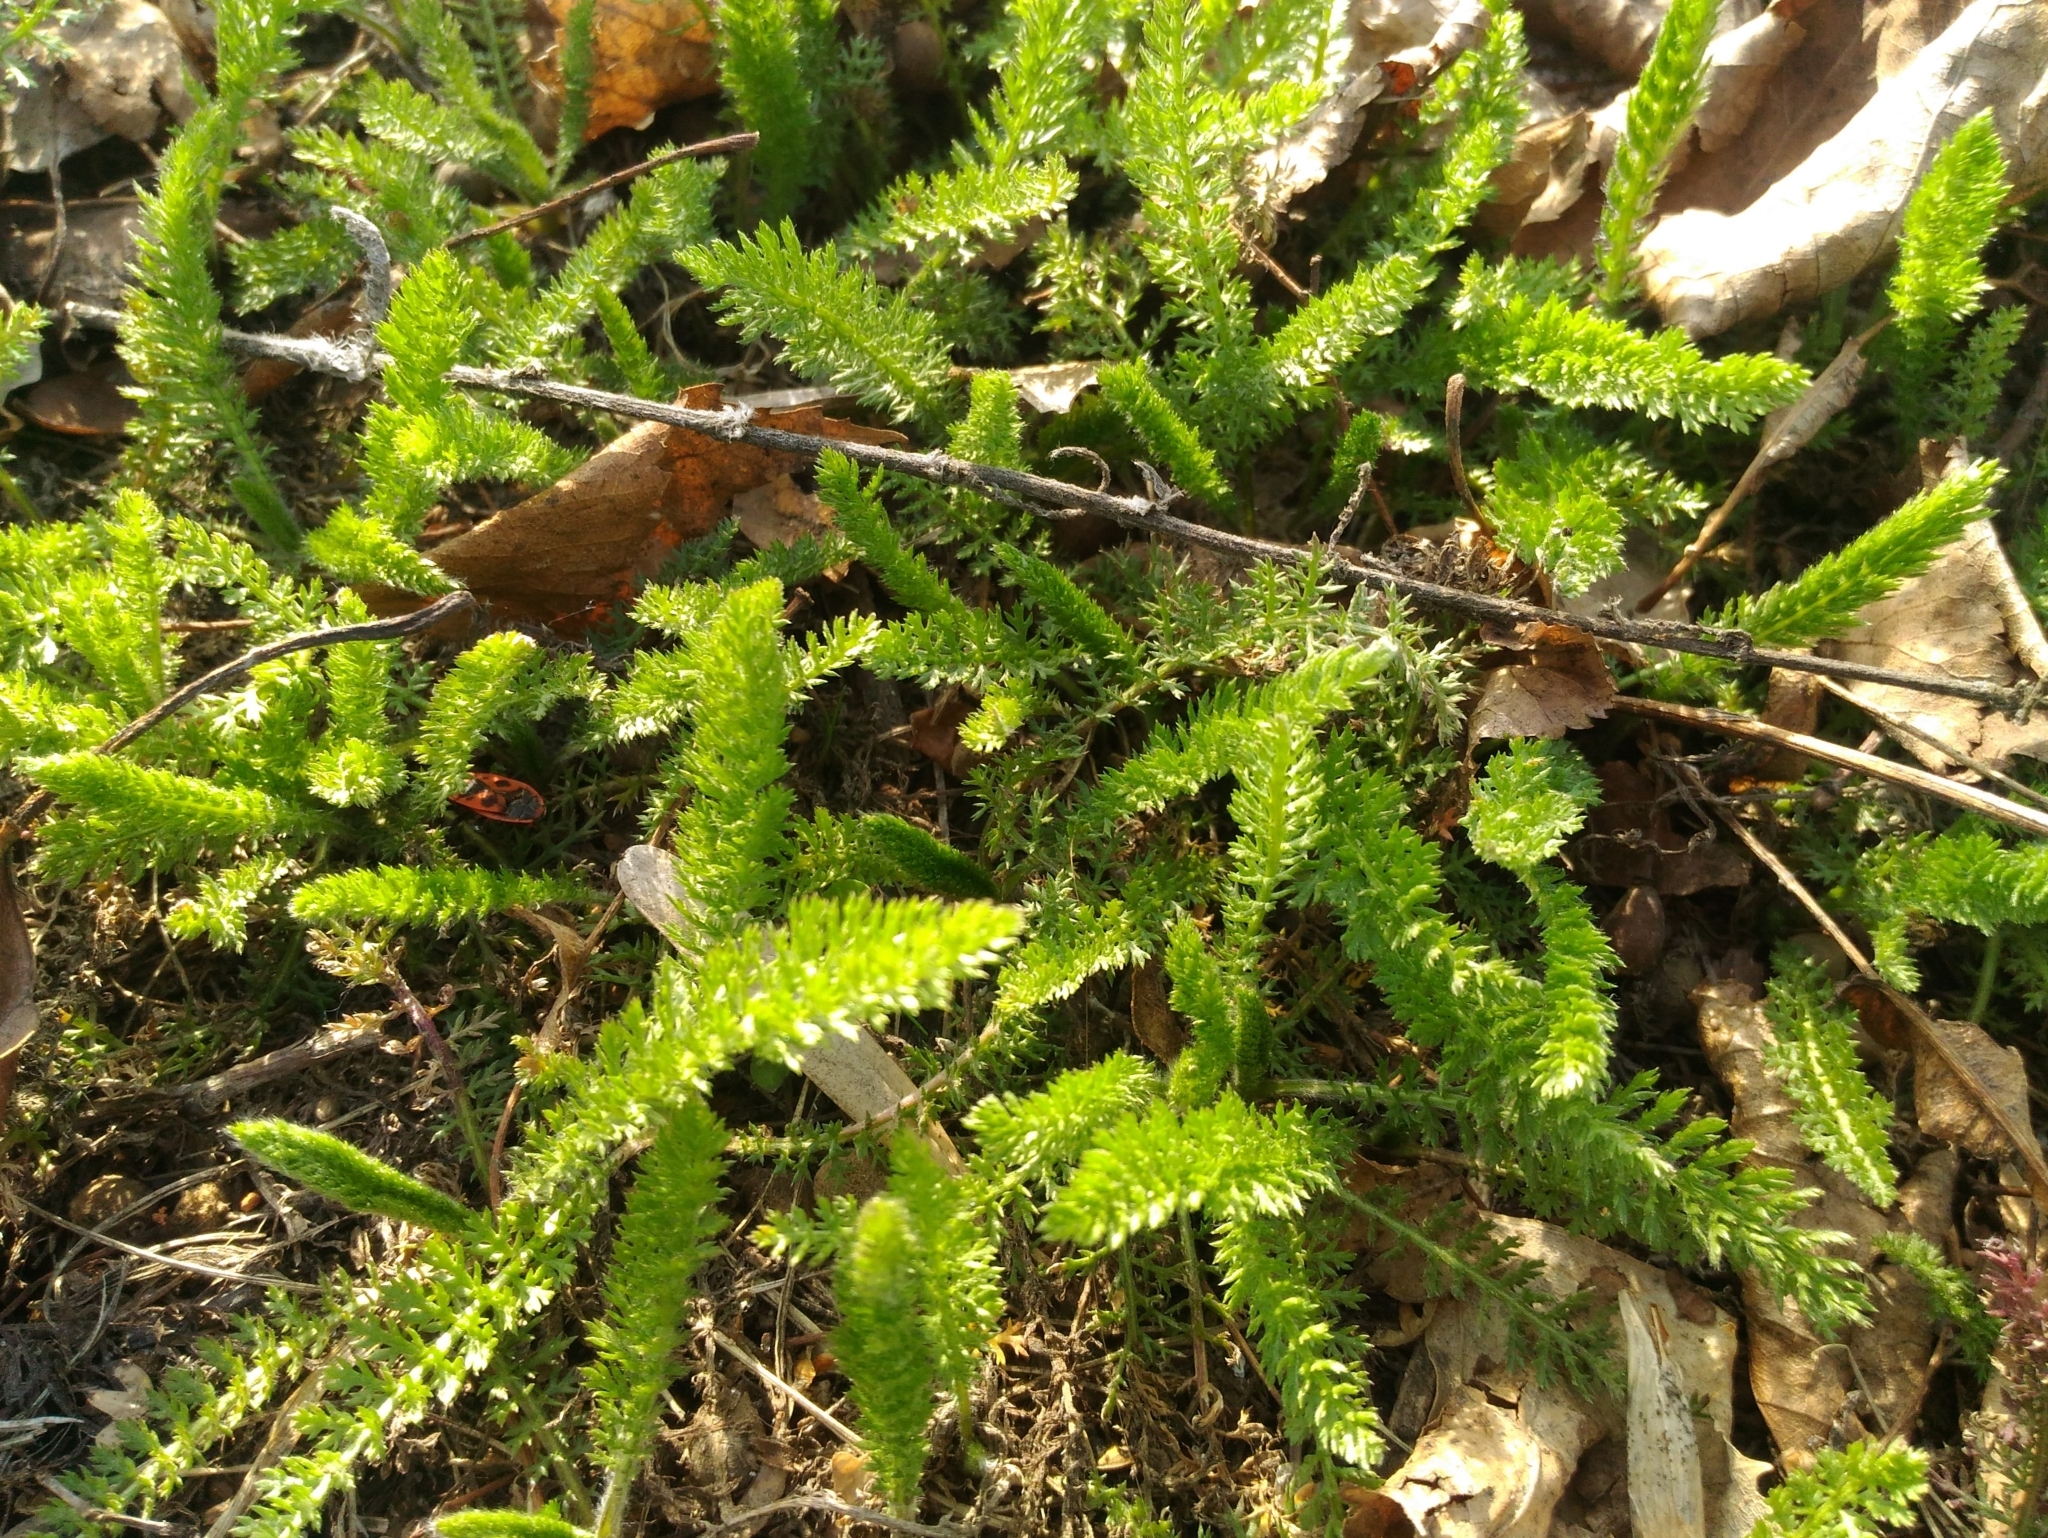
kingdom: Plantae
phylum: Tracheophyta
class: Magnoliopsida
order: Asterales
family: Asteraceae
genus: Achillea
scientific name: Achillea millefolium
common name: Yarrow
